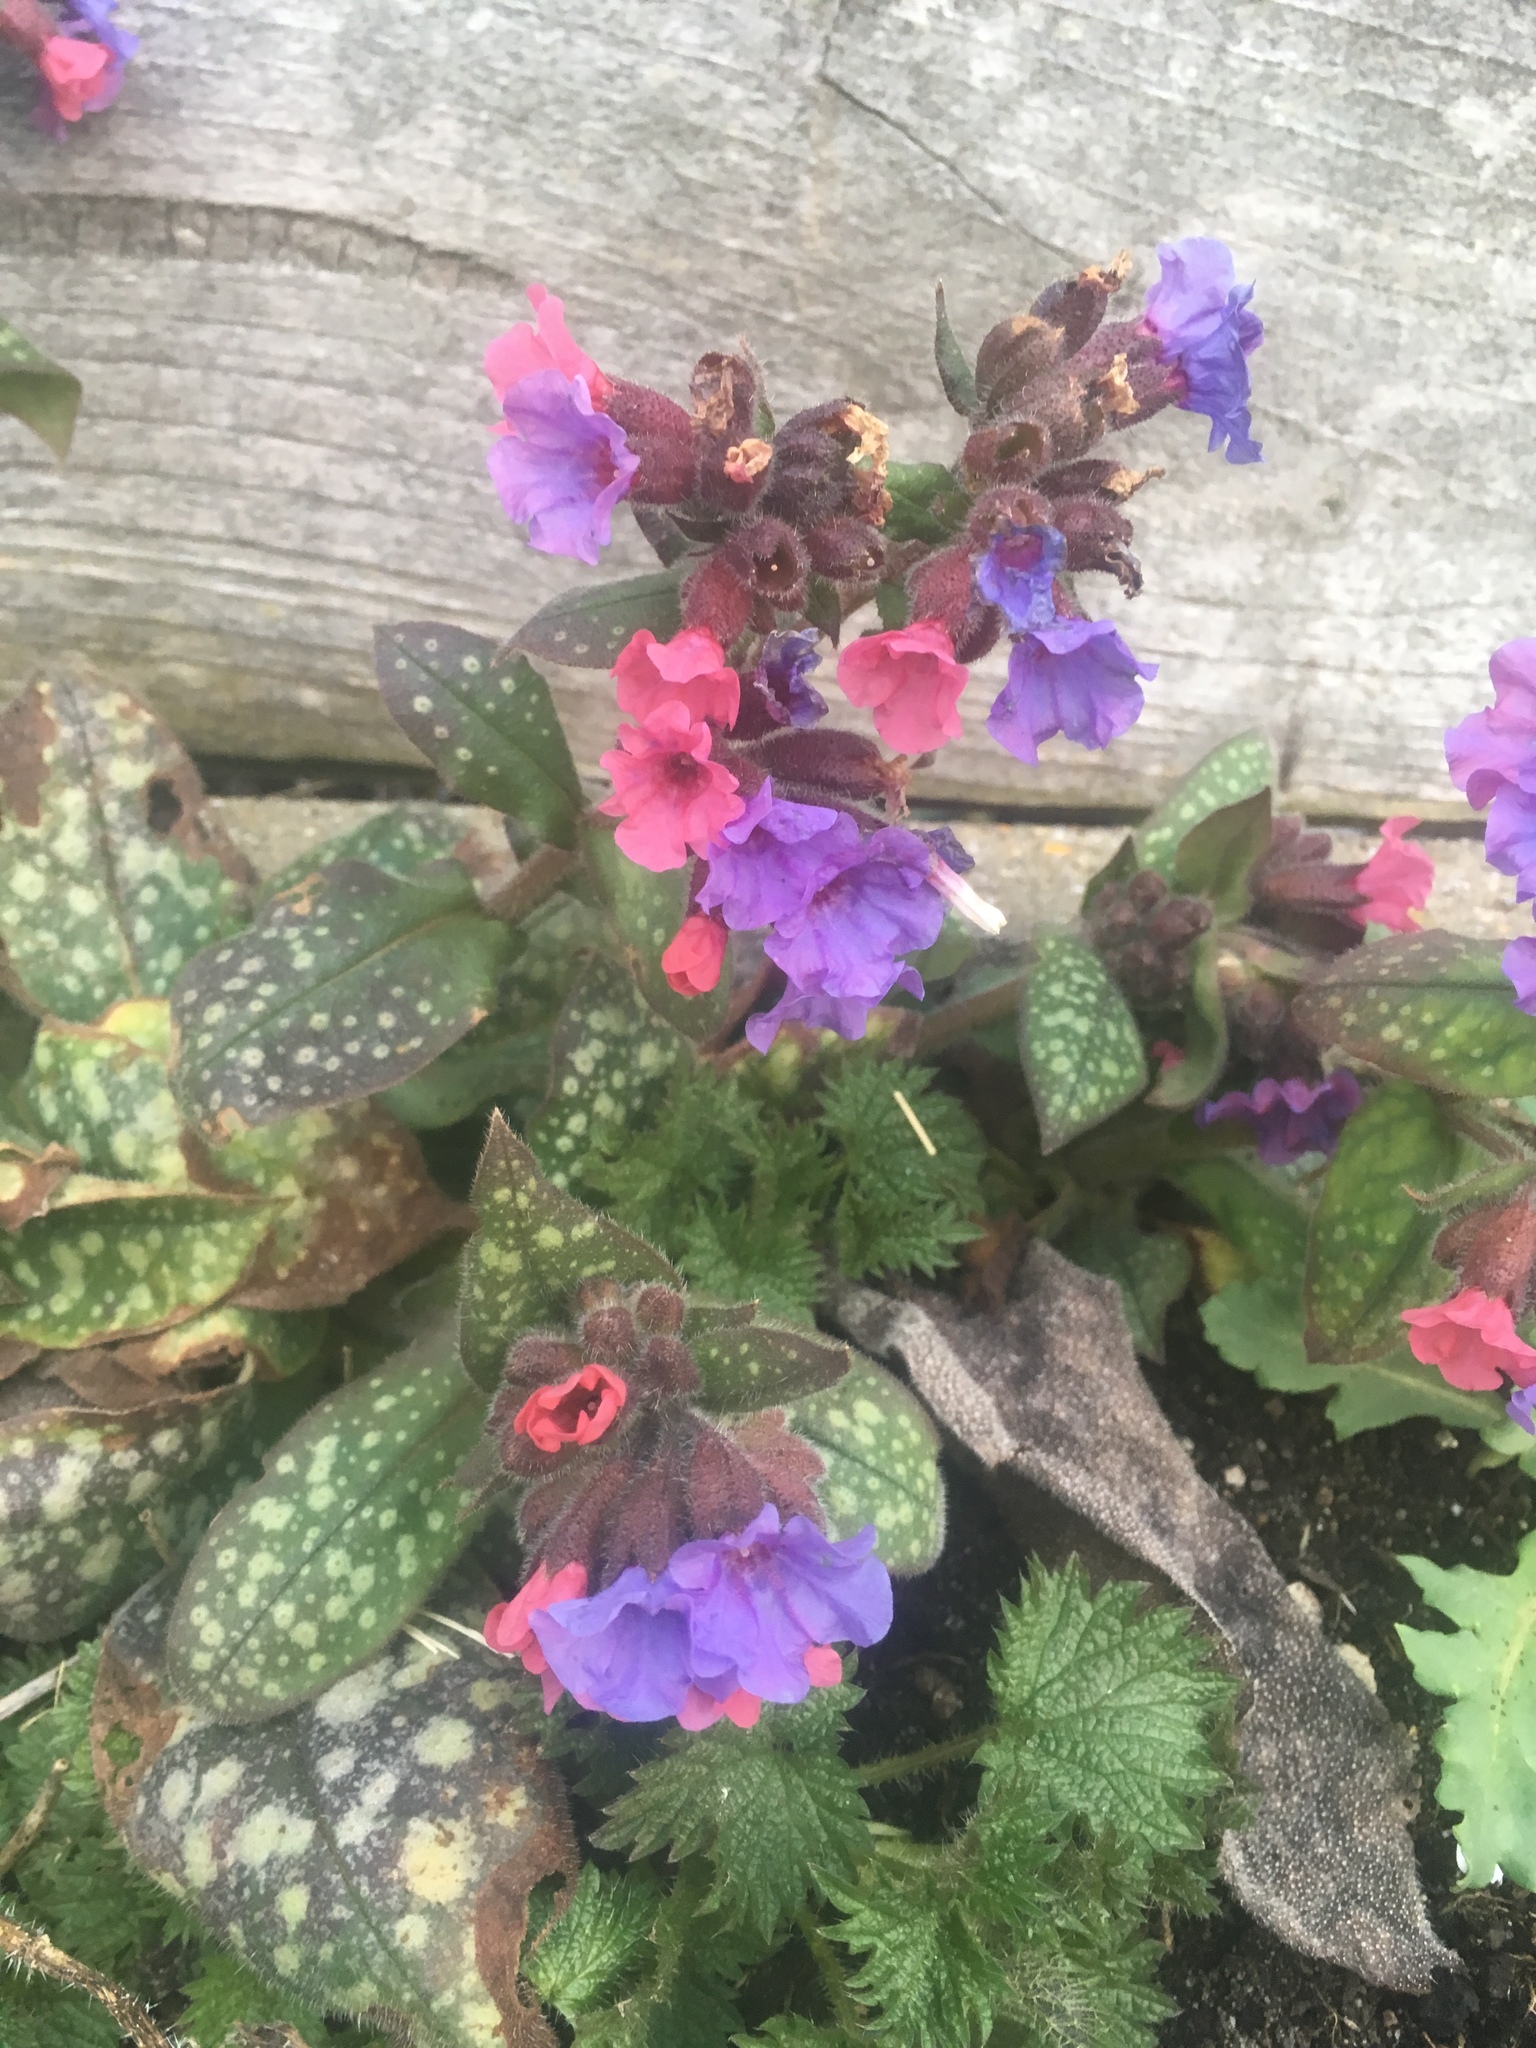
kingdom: Plantae
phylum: Tracheophyta
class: Magnoliopsida
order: Boraginales
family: Boraginaceae
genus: Pulmonaria
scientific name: Pulmonaria officinalis
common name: Lungwort
